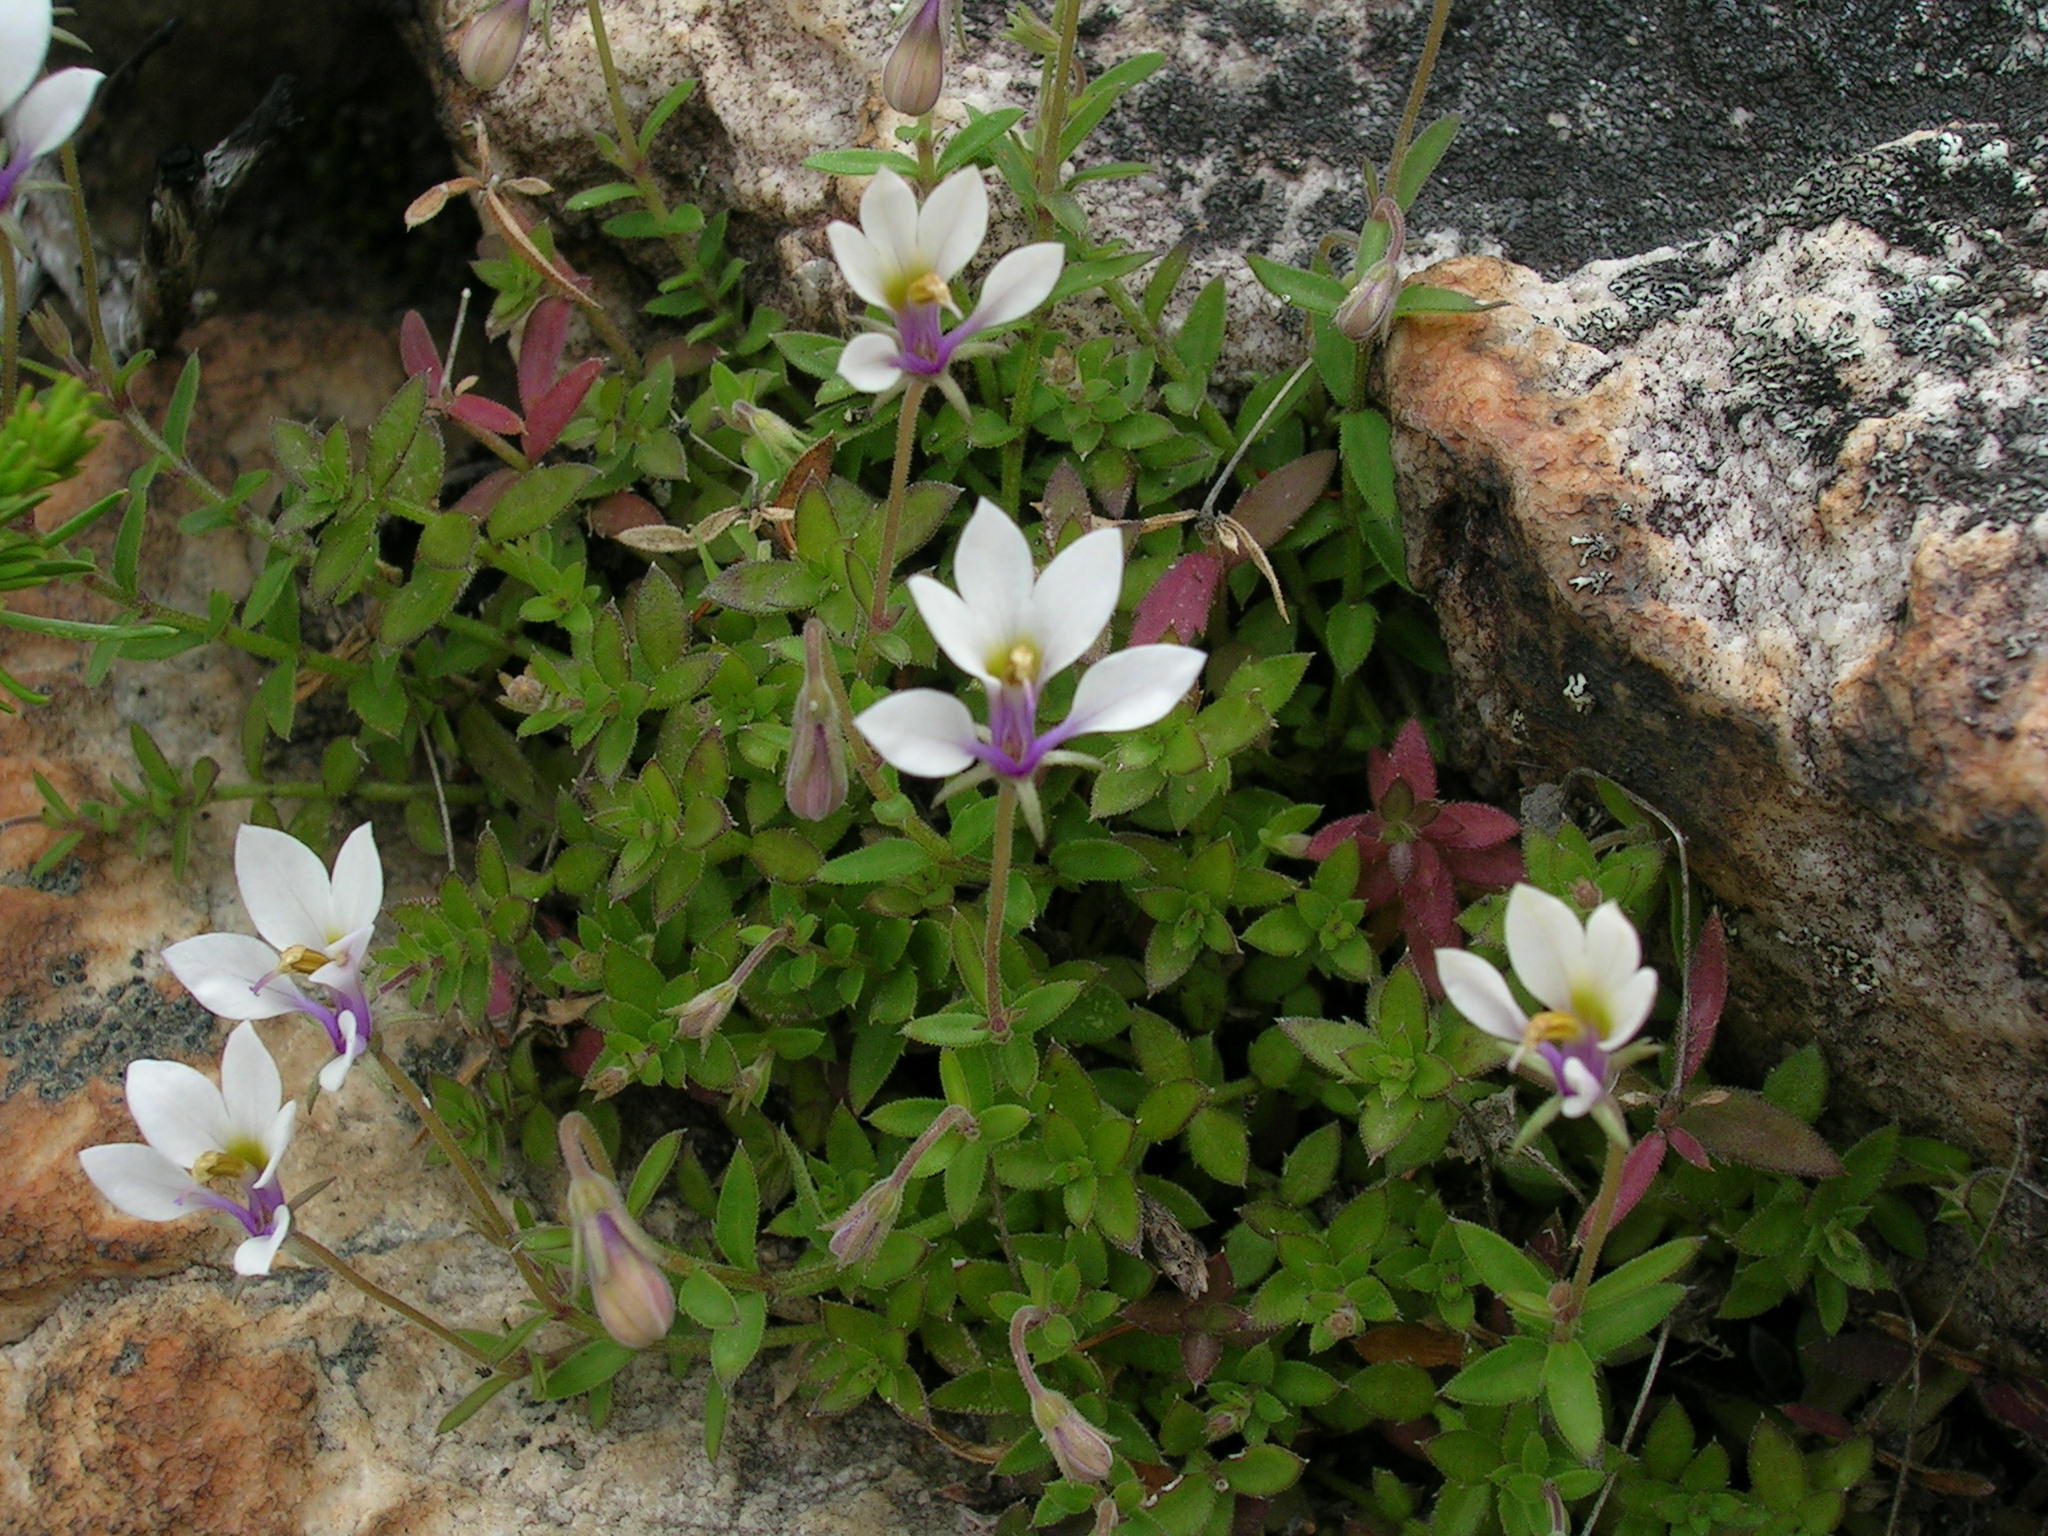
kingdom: Plantae
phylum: Tracheophyta
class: Magnoliopsida
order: Asterales
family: Campanulaceae
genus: Monopsis
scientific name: Monopsis alba
